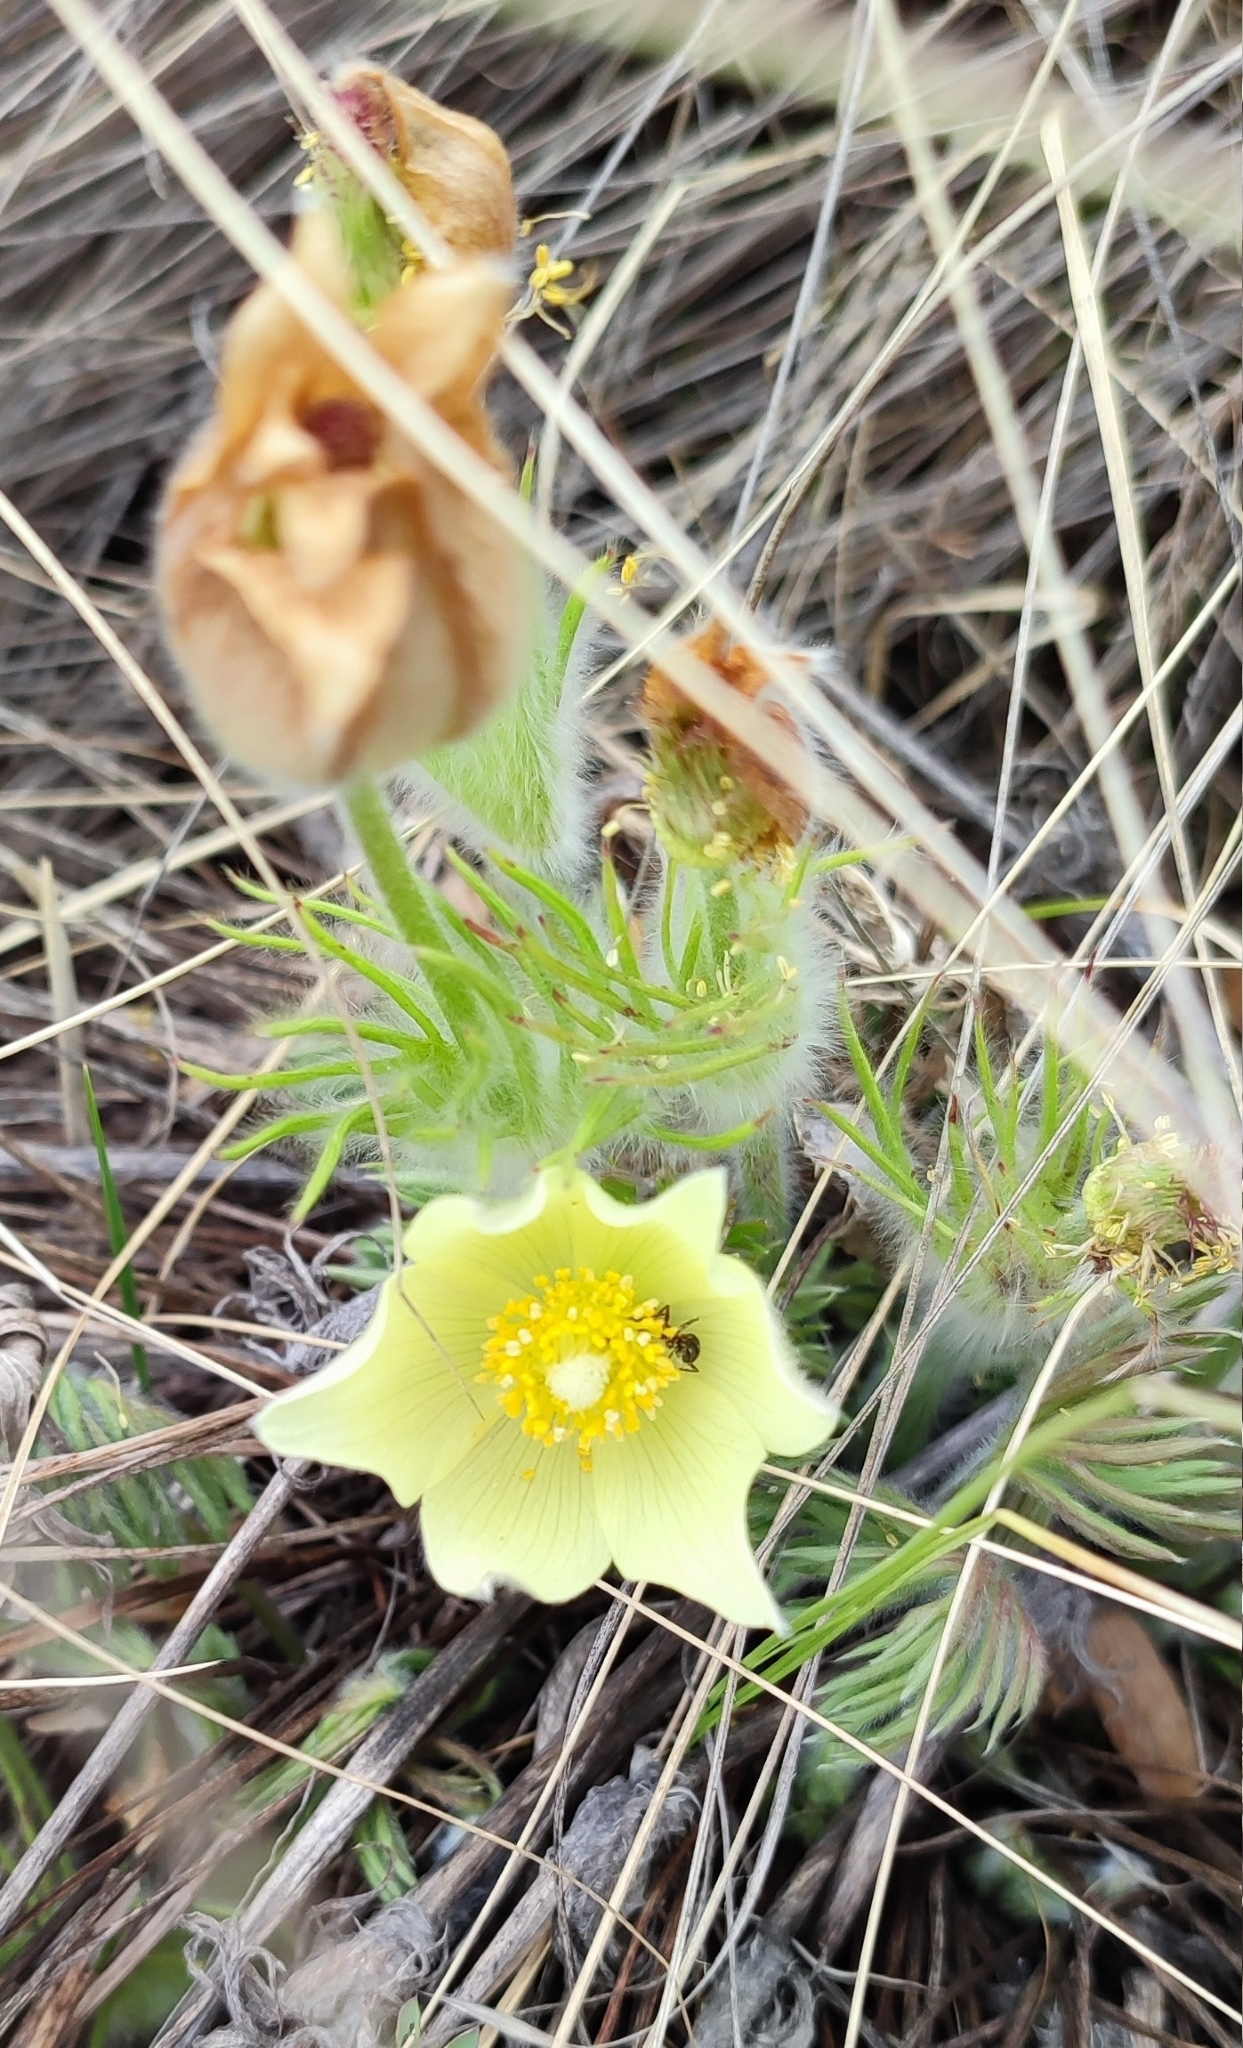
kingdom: Plantae
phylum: Tracheophyta
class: Magnoliopsida
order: Ranunculales
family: Ranunculaceae
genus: Pulsatilla
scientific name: Pulsatilla patens
